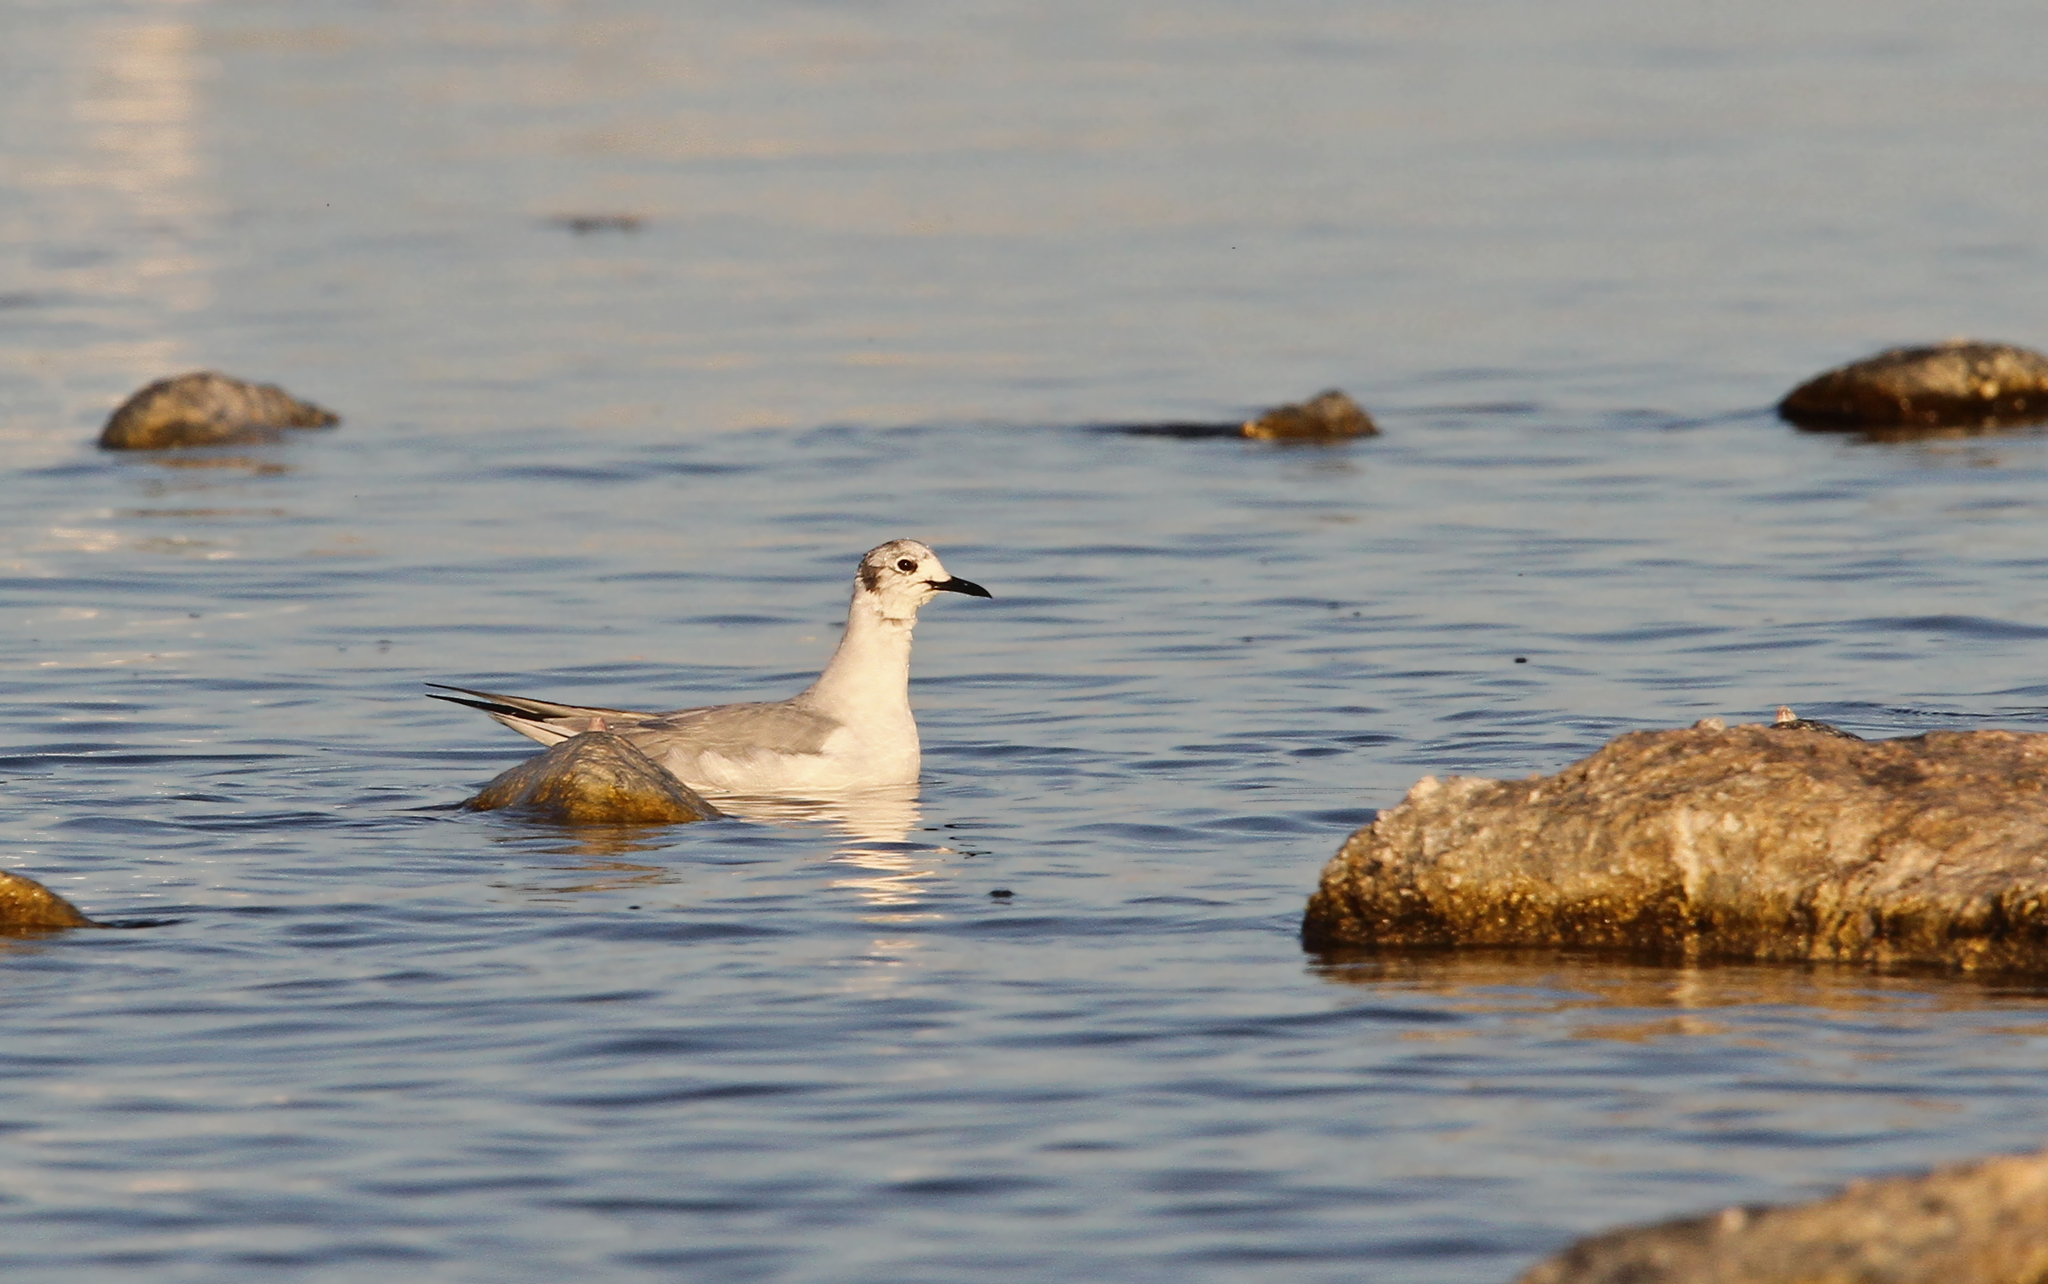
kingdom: Animalia
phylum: Chordata
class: Aves
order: Charadriiformes
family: Laridae
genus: Chroicocephalus
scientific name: Chroicocephalus philadelphia
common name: Bonaparte's gull
